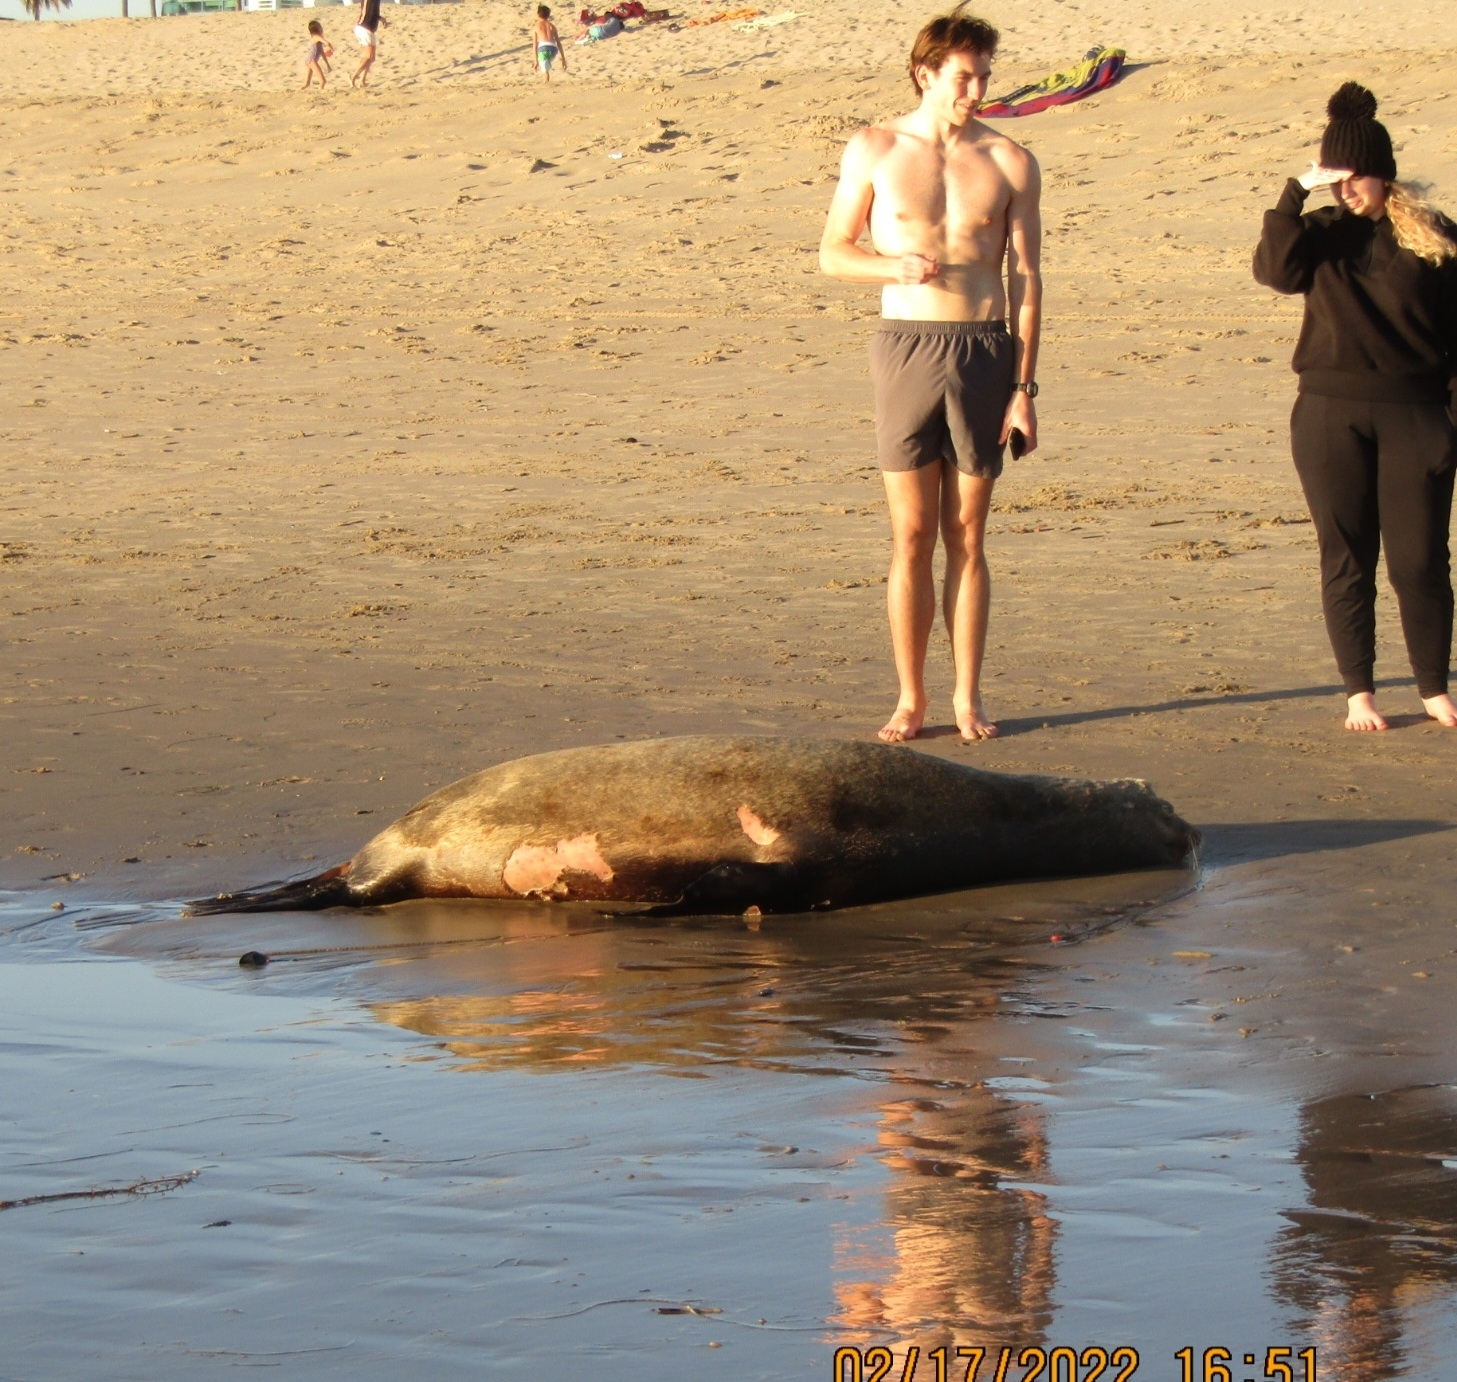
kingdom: Animalia
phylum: Chordata
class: Mammalia
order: Carnivora
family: Otariidae
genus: Zalophus
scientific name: Zalophus californianus
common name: California sea lion
